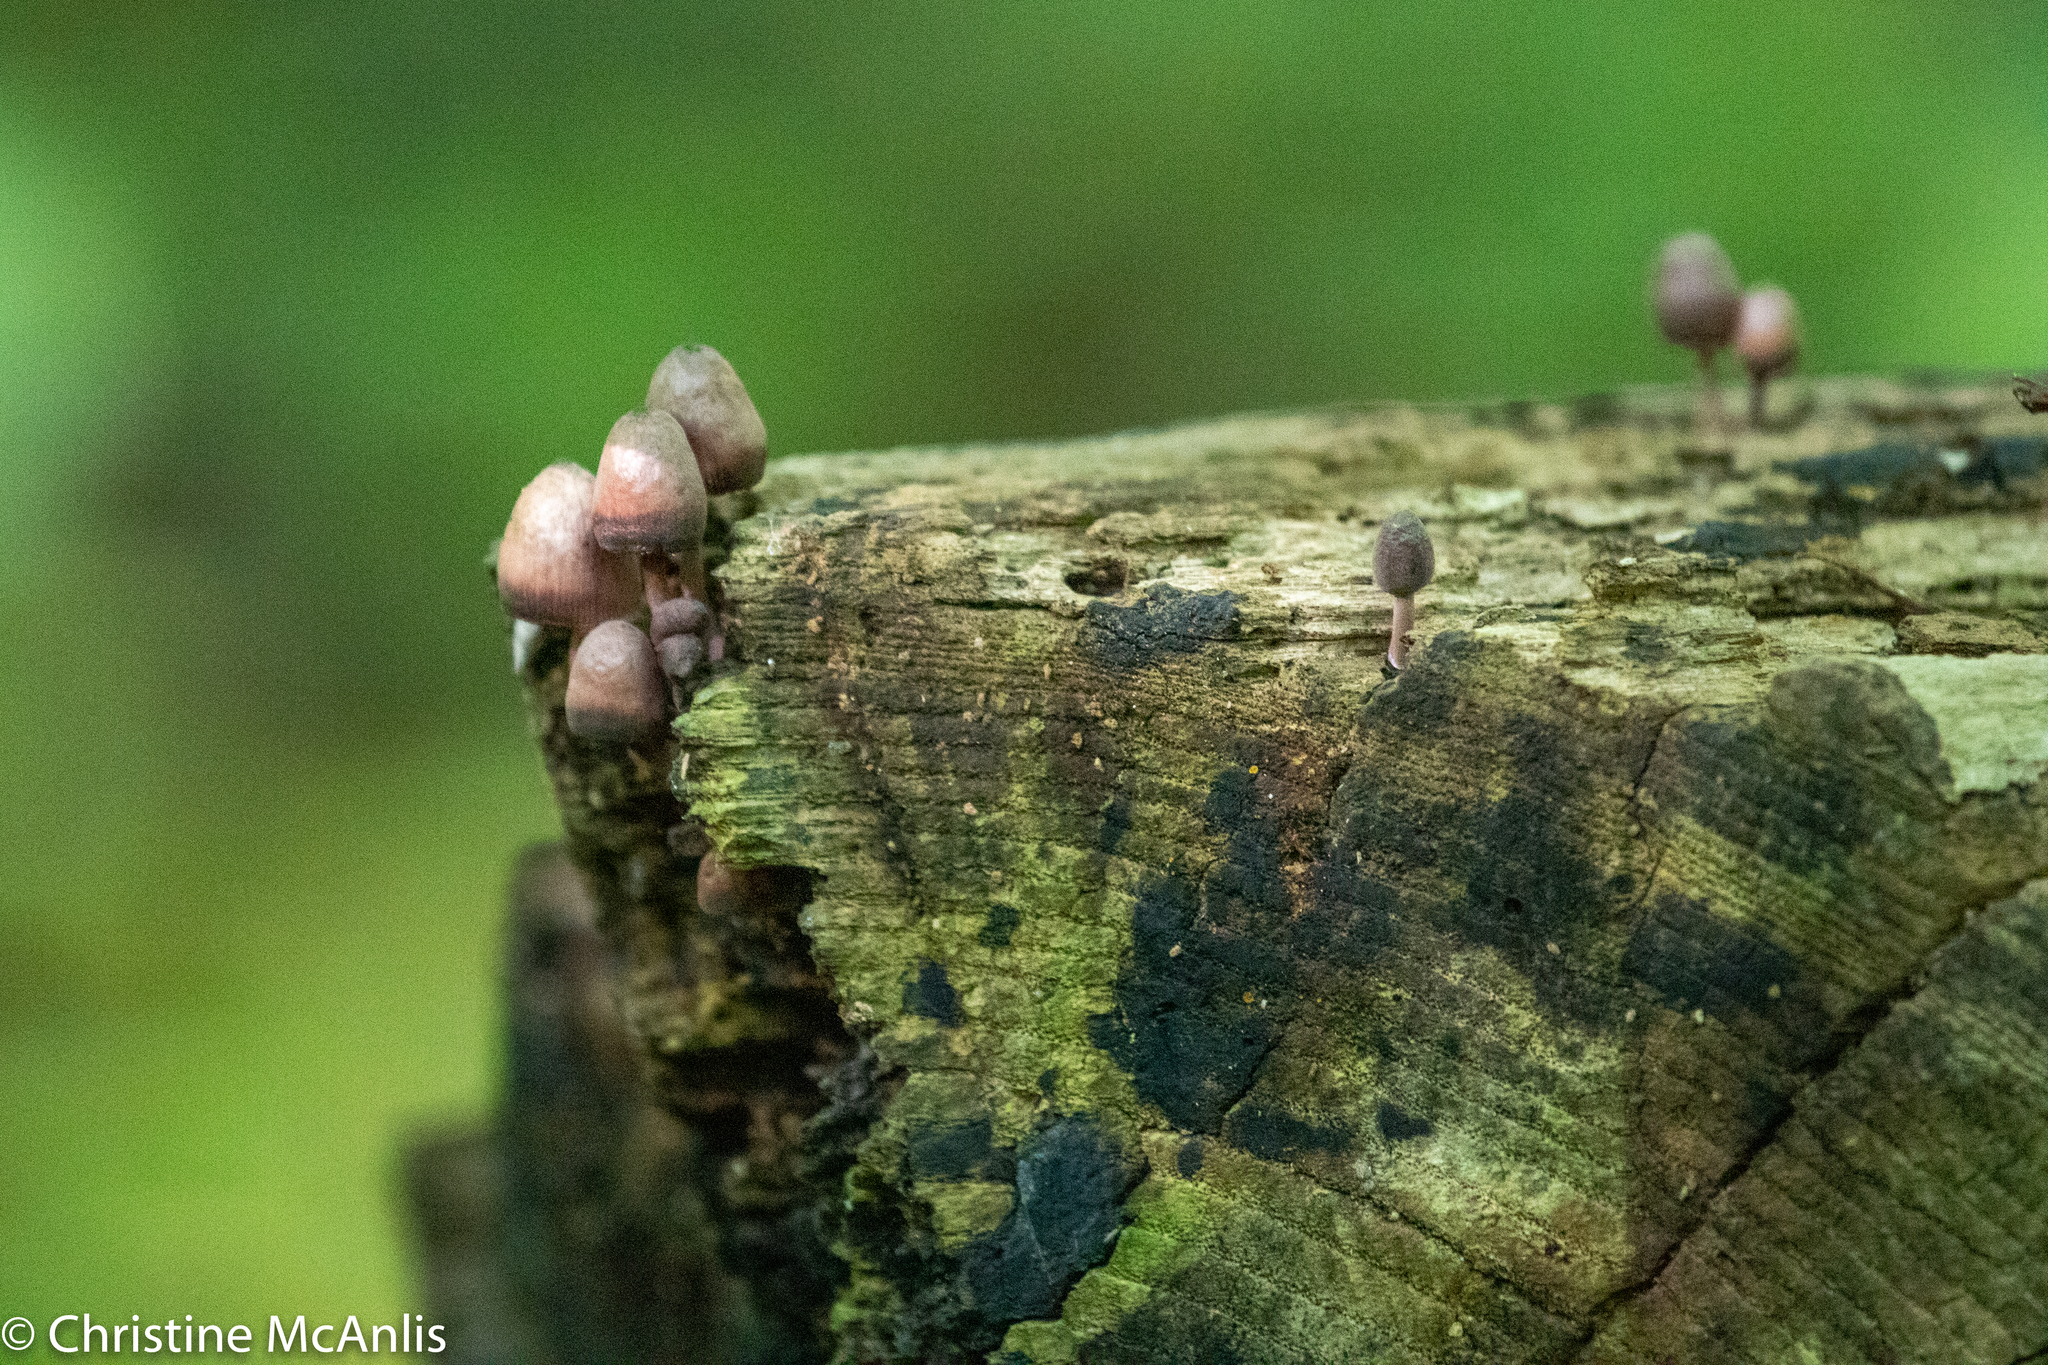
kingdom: Fungi
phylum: Basidiomycota
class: Agaricomycetes
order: Agaricales
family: Mycenaceae
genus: Mycena
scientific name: Mycena haematopus
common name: Burgundydrop bonnet
